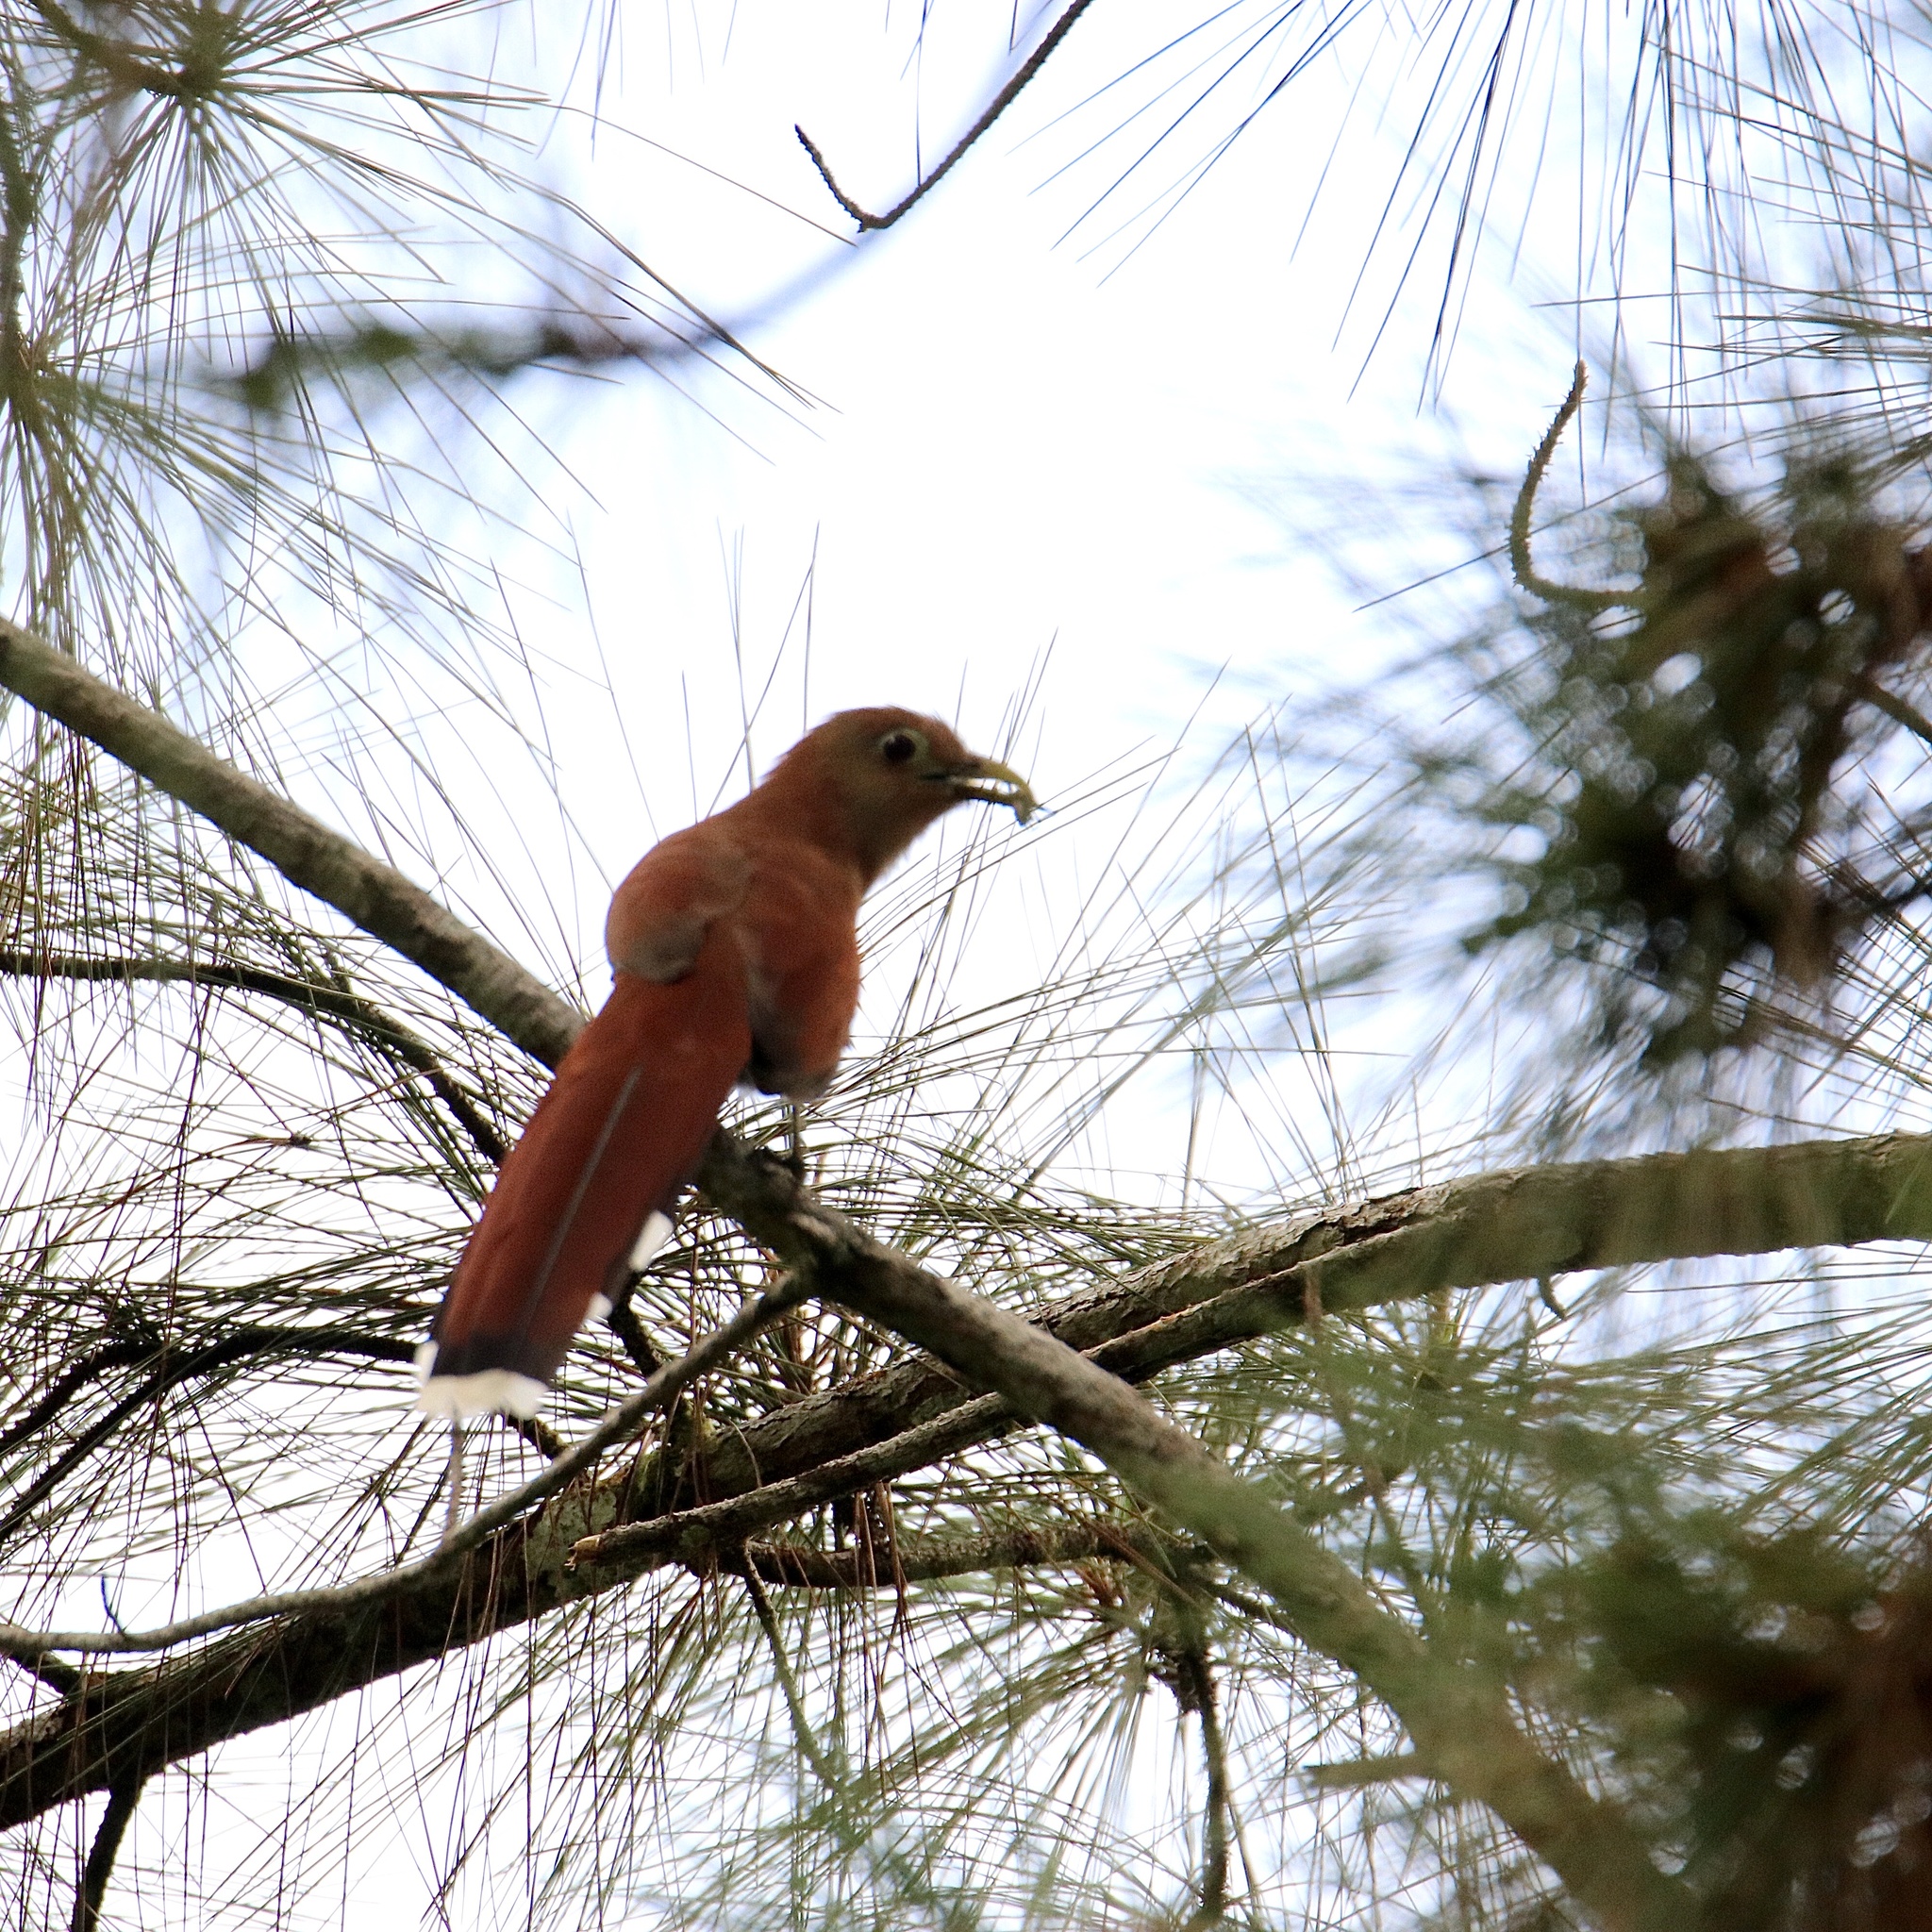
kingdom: Animalia
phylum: Chordata
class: Aves
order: Cuculiformes
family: Cuculidae
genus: Piaya
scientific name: Piaya cayana
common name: Squirrel cuckoo
